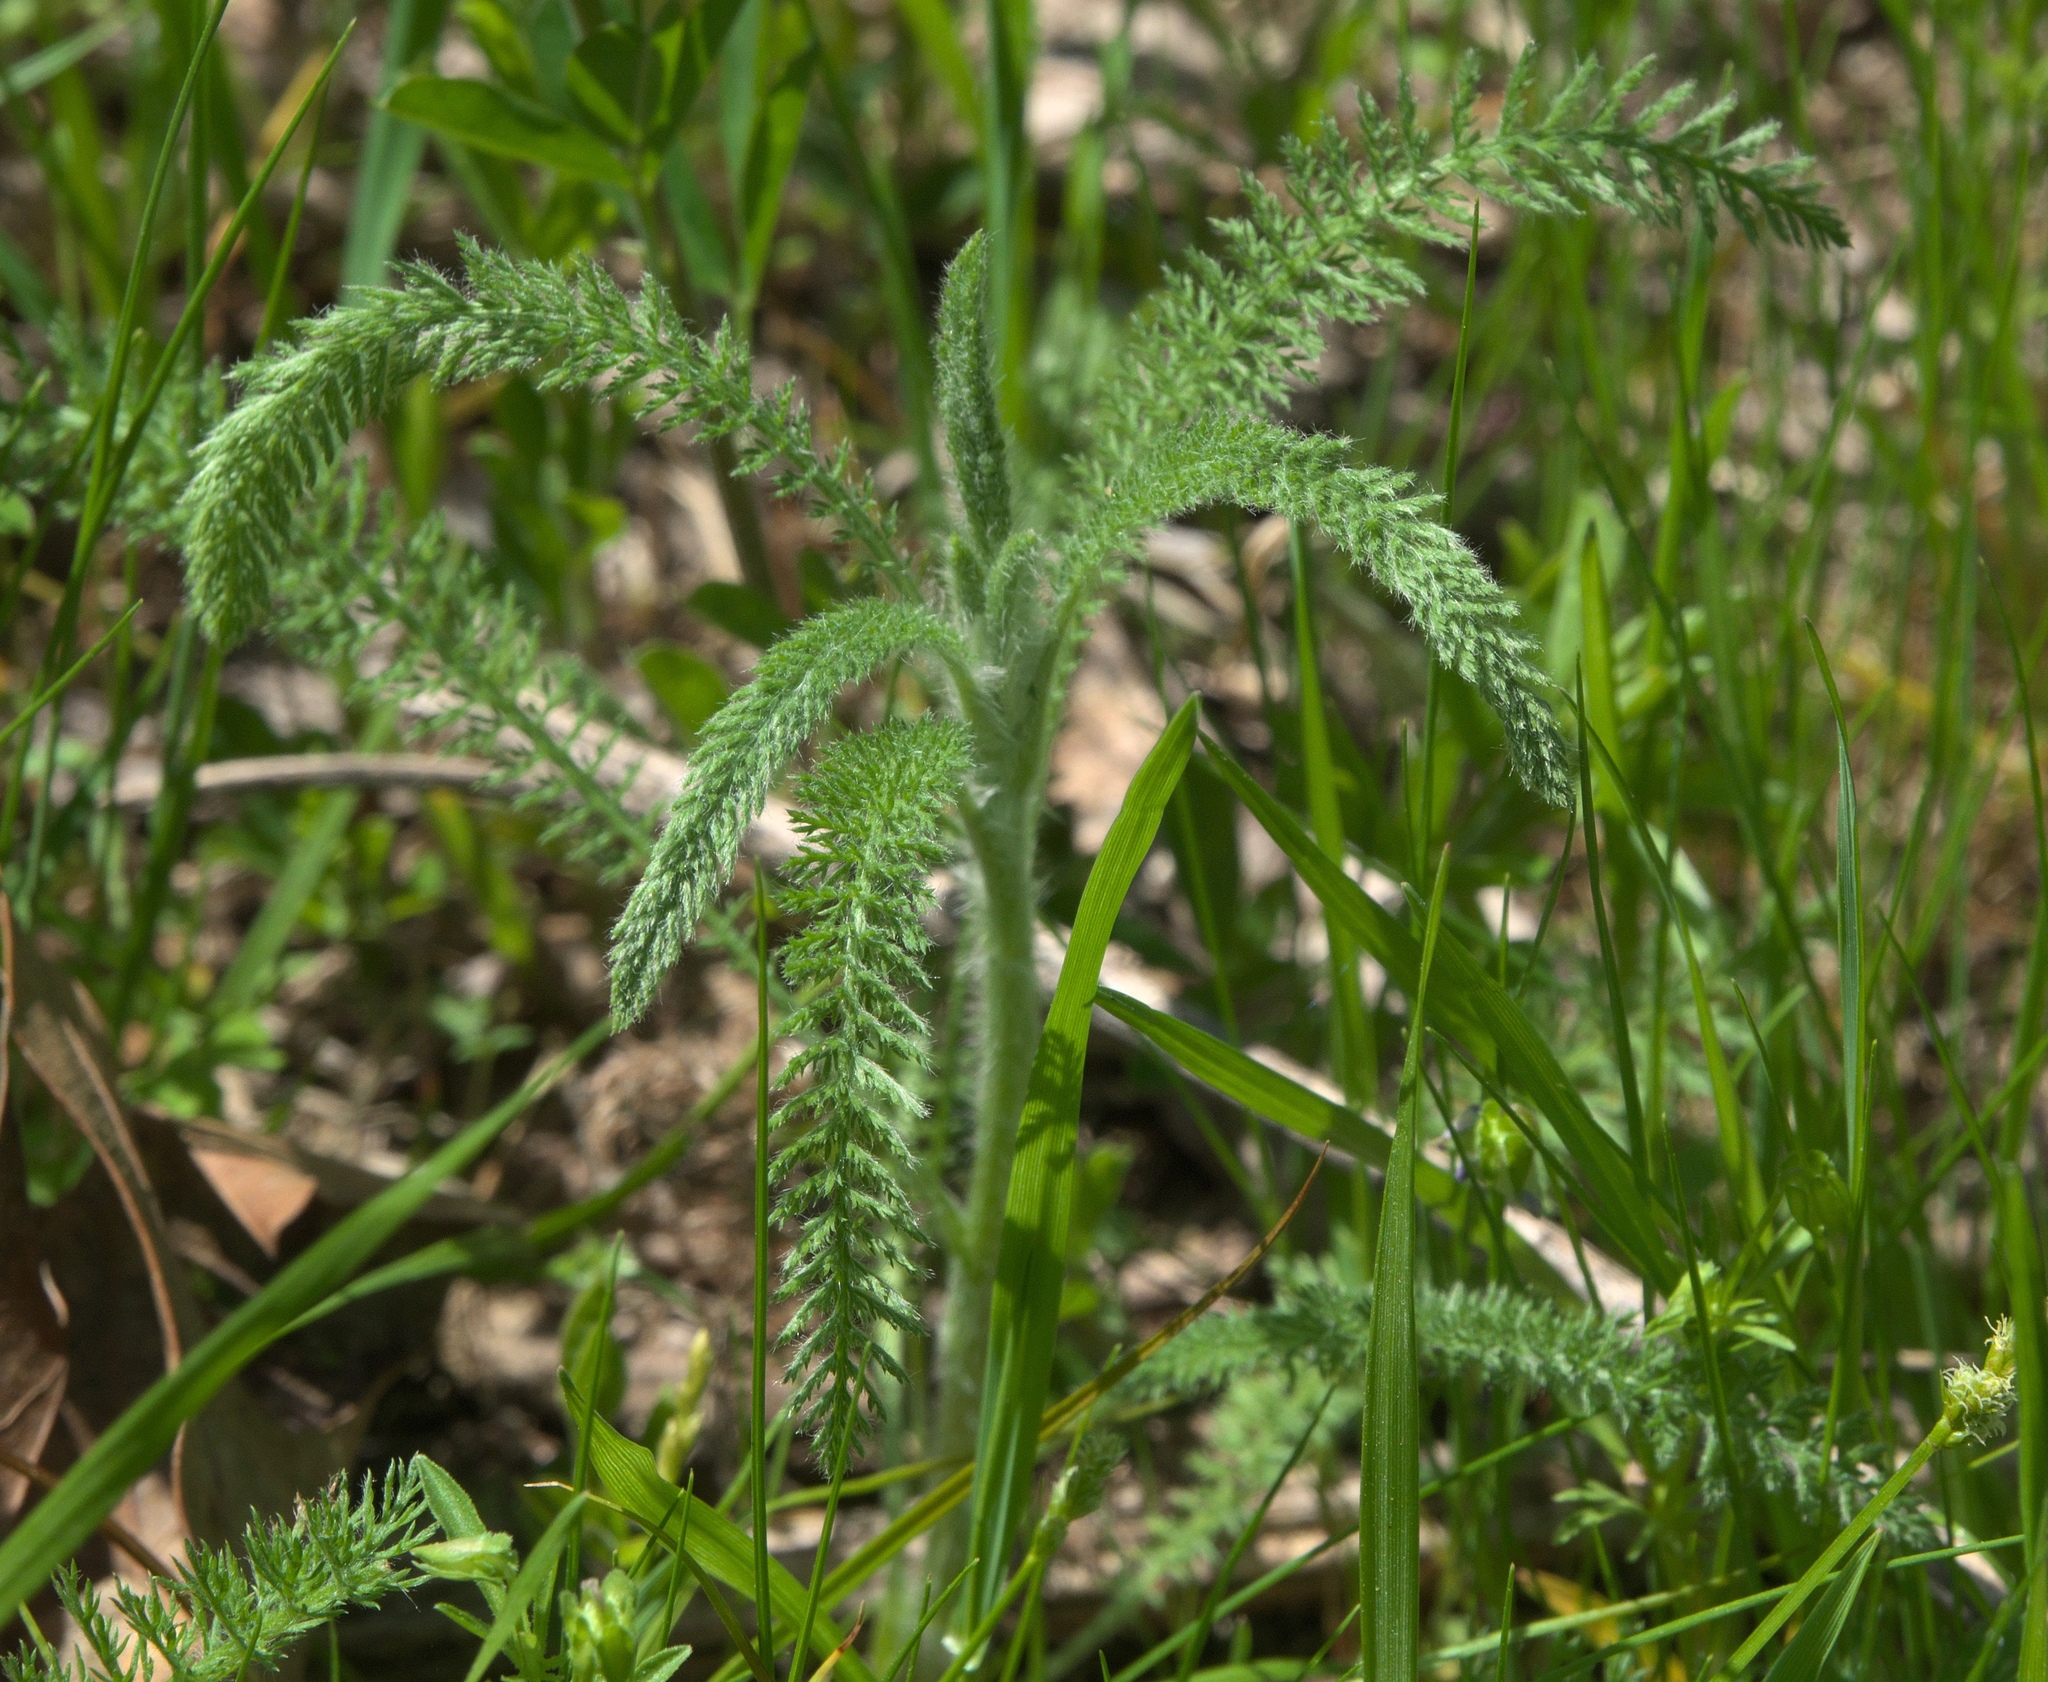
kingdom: Plantae
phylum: Tracheophyta
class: Magnoliopsida
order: Asterales
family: Asteraceae
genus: Achillea
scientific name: Achillea millefolium
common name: Yarrow
